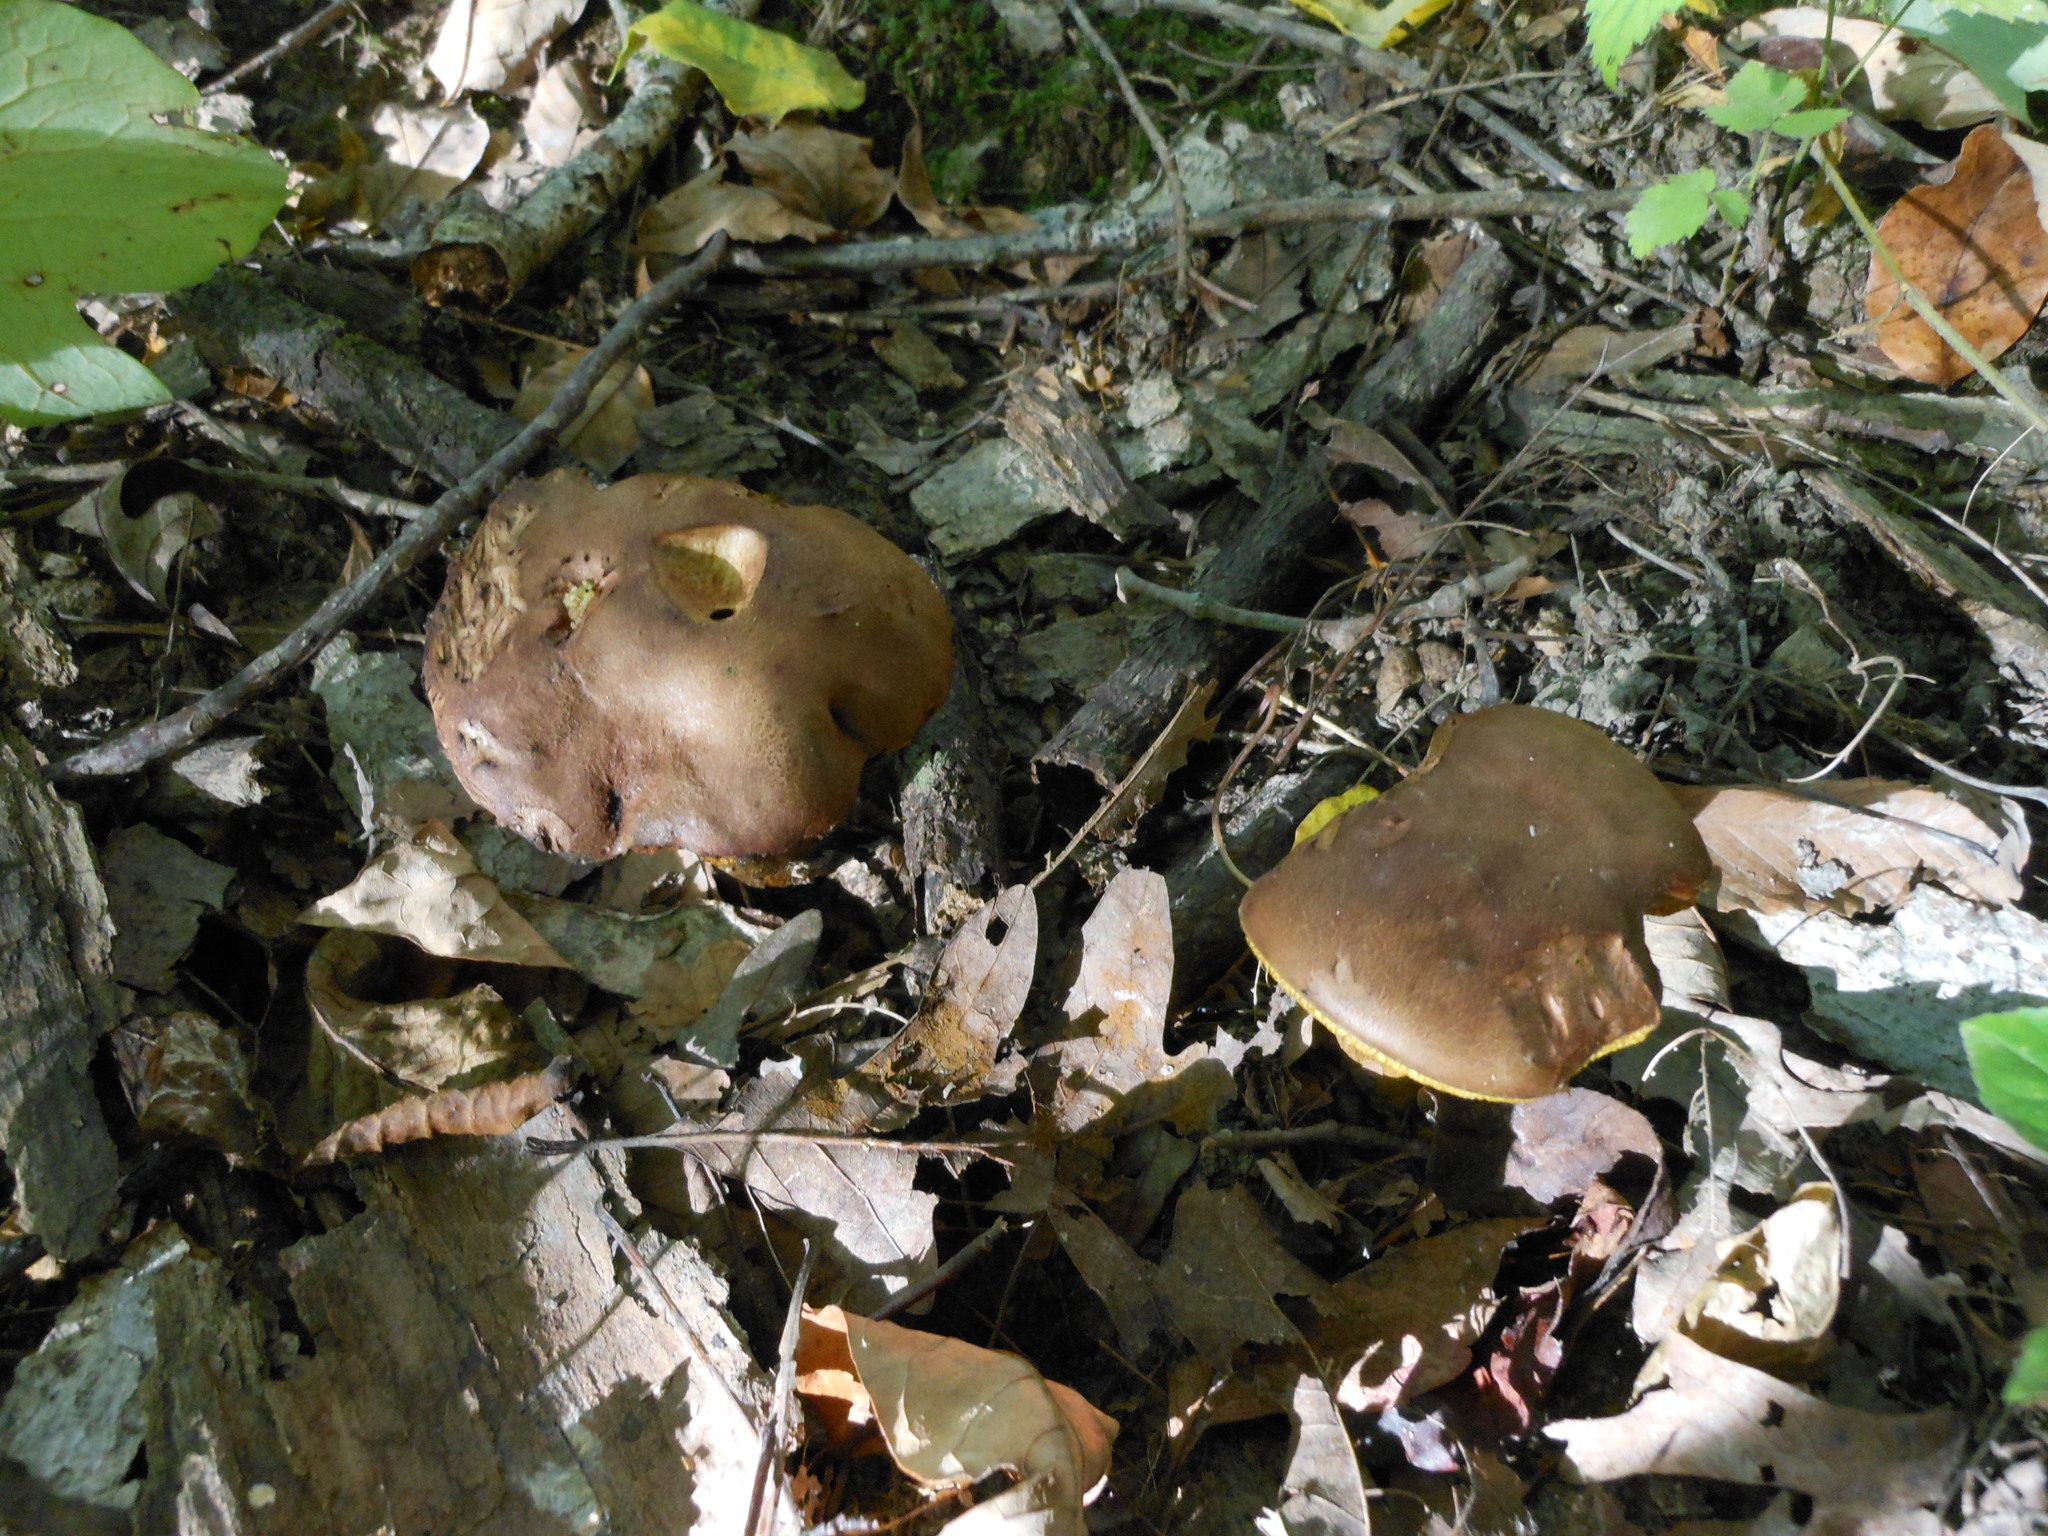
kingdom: Fungi
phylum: Basidiomycota
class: Agaricomycetes
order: Boletales
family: Boletaceae
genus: Aureoboletus
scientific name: Aureoboletus innixus
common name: Clustered brown bolete
